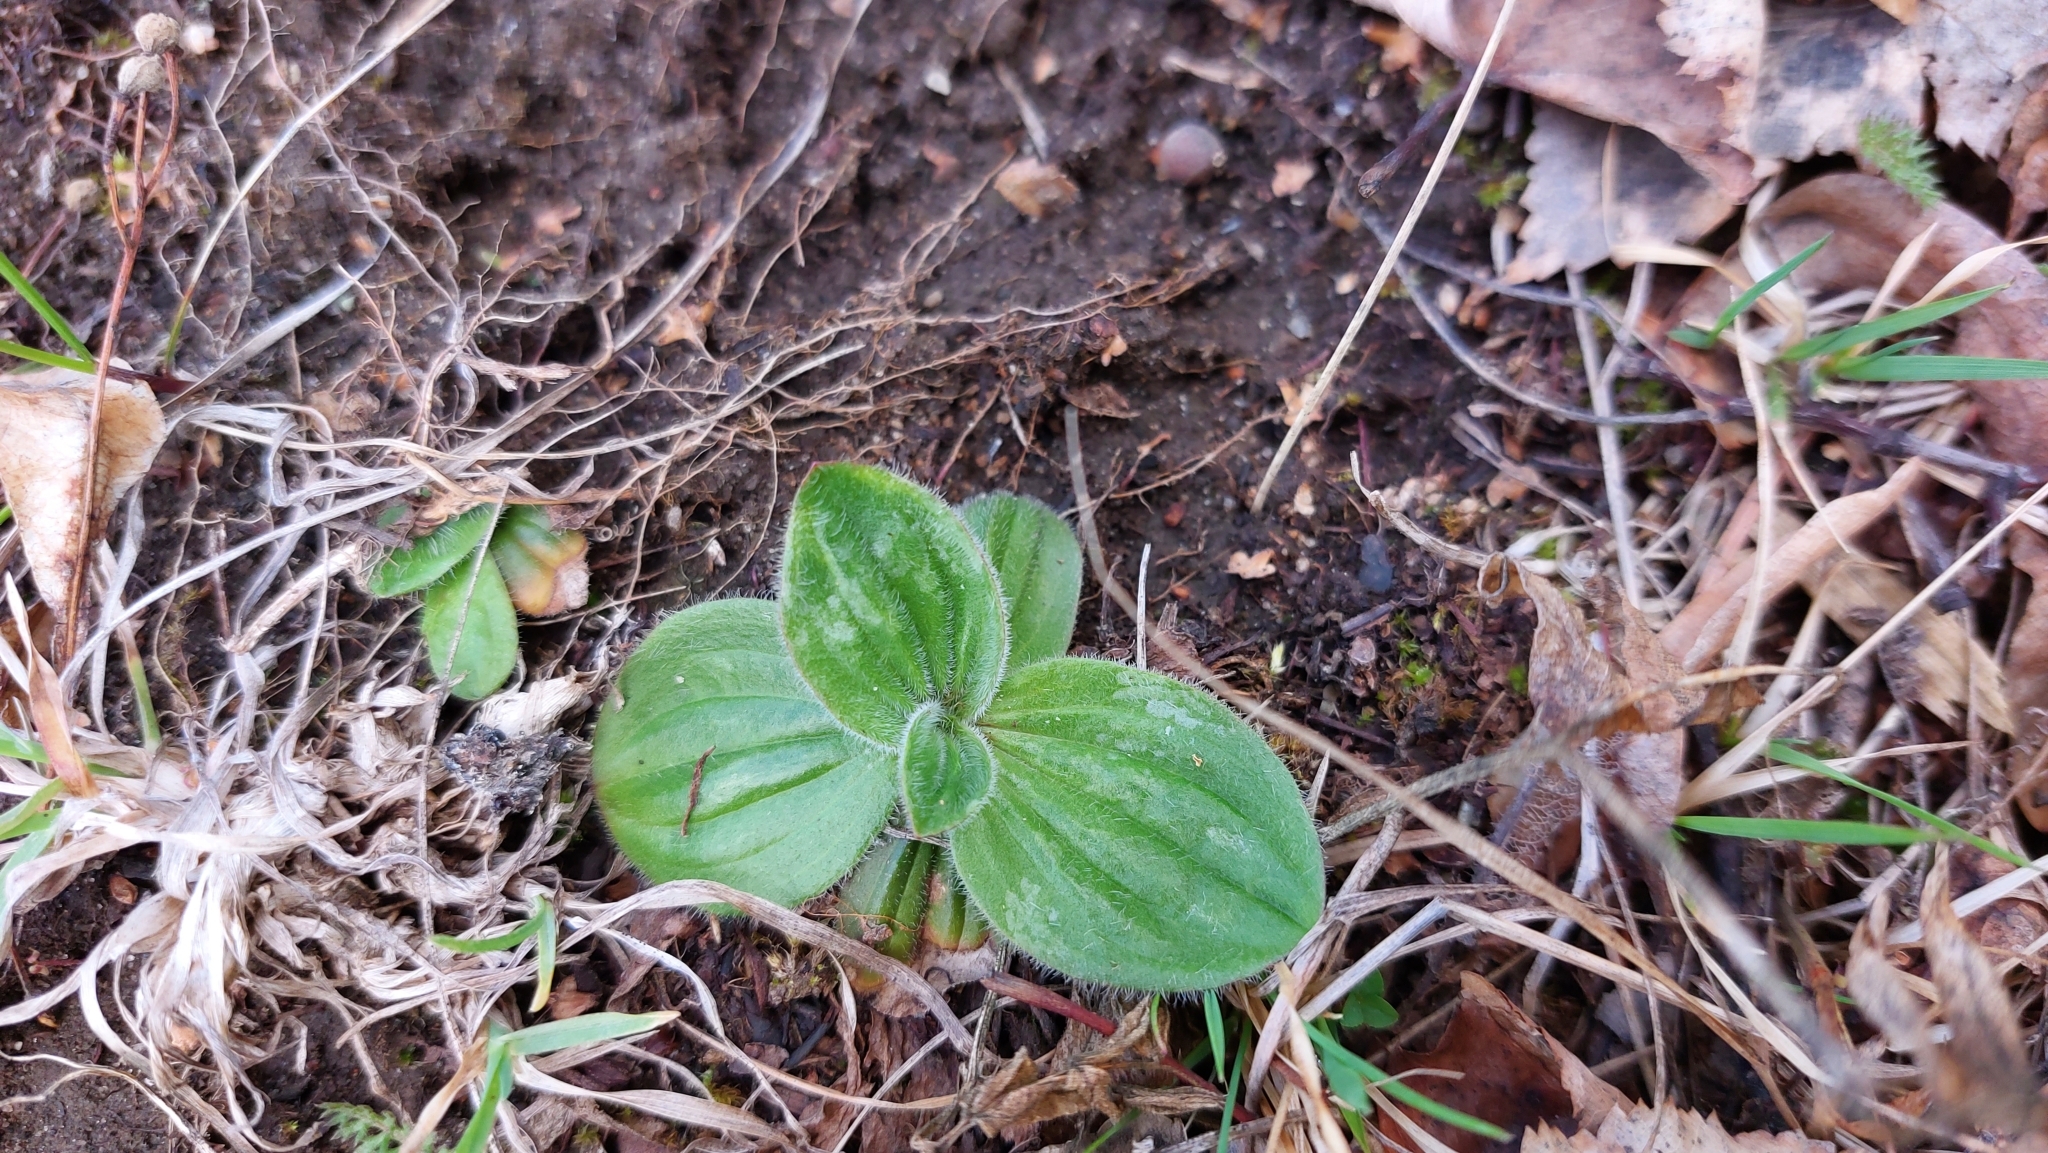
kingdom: Plantae
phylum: Tracheophyta
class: Magnoliopsida
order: Lamiales
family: Plantaginaceae
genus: Plantago
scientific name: Plantago media
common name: Hoary plantain
